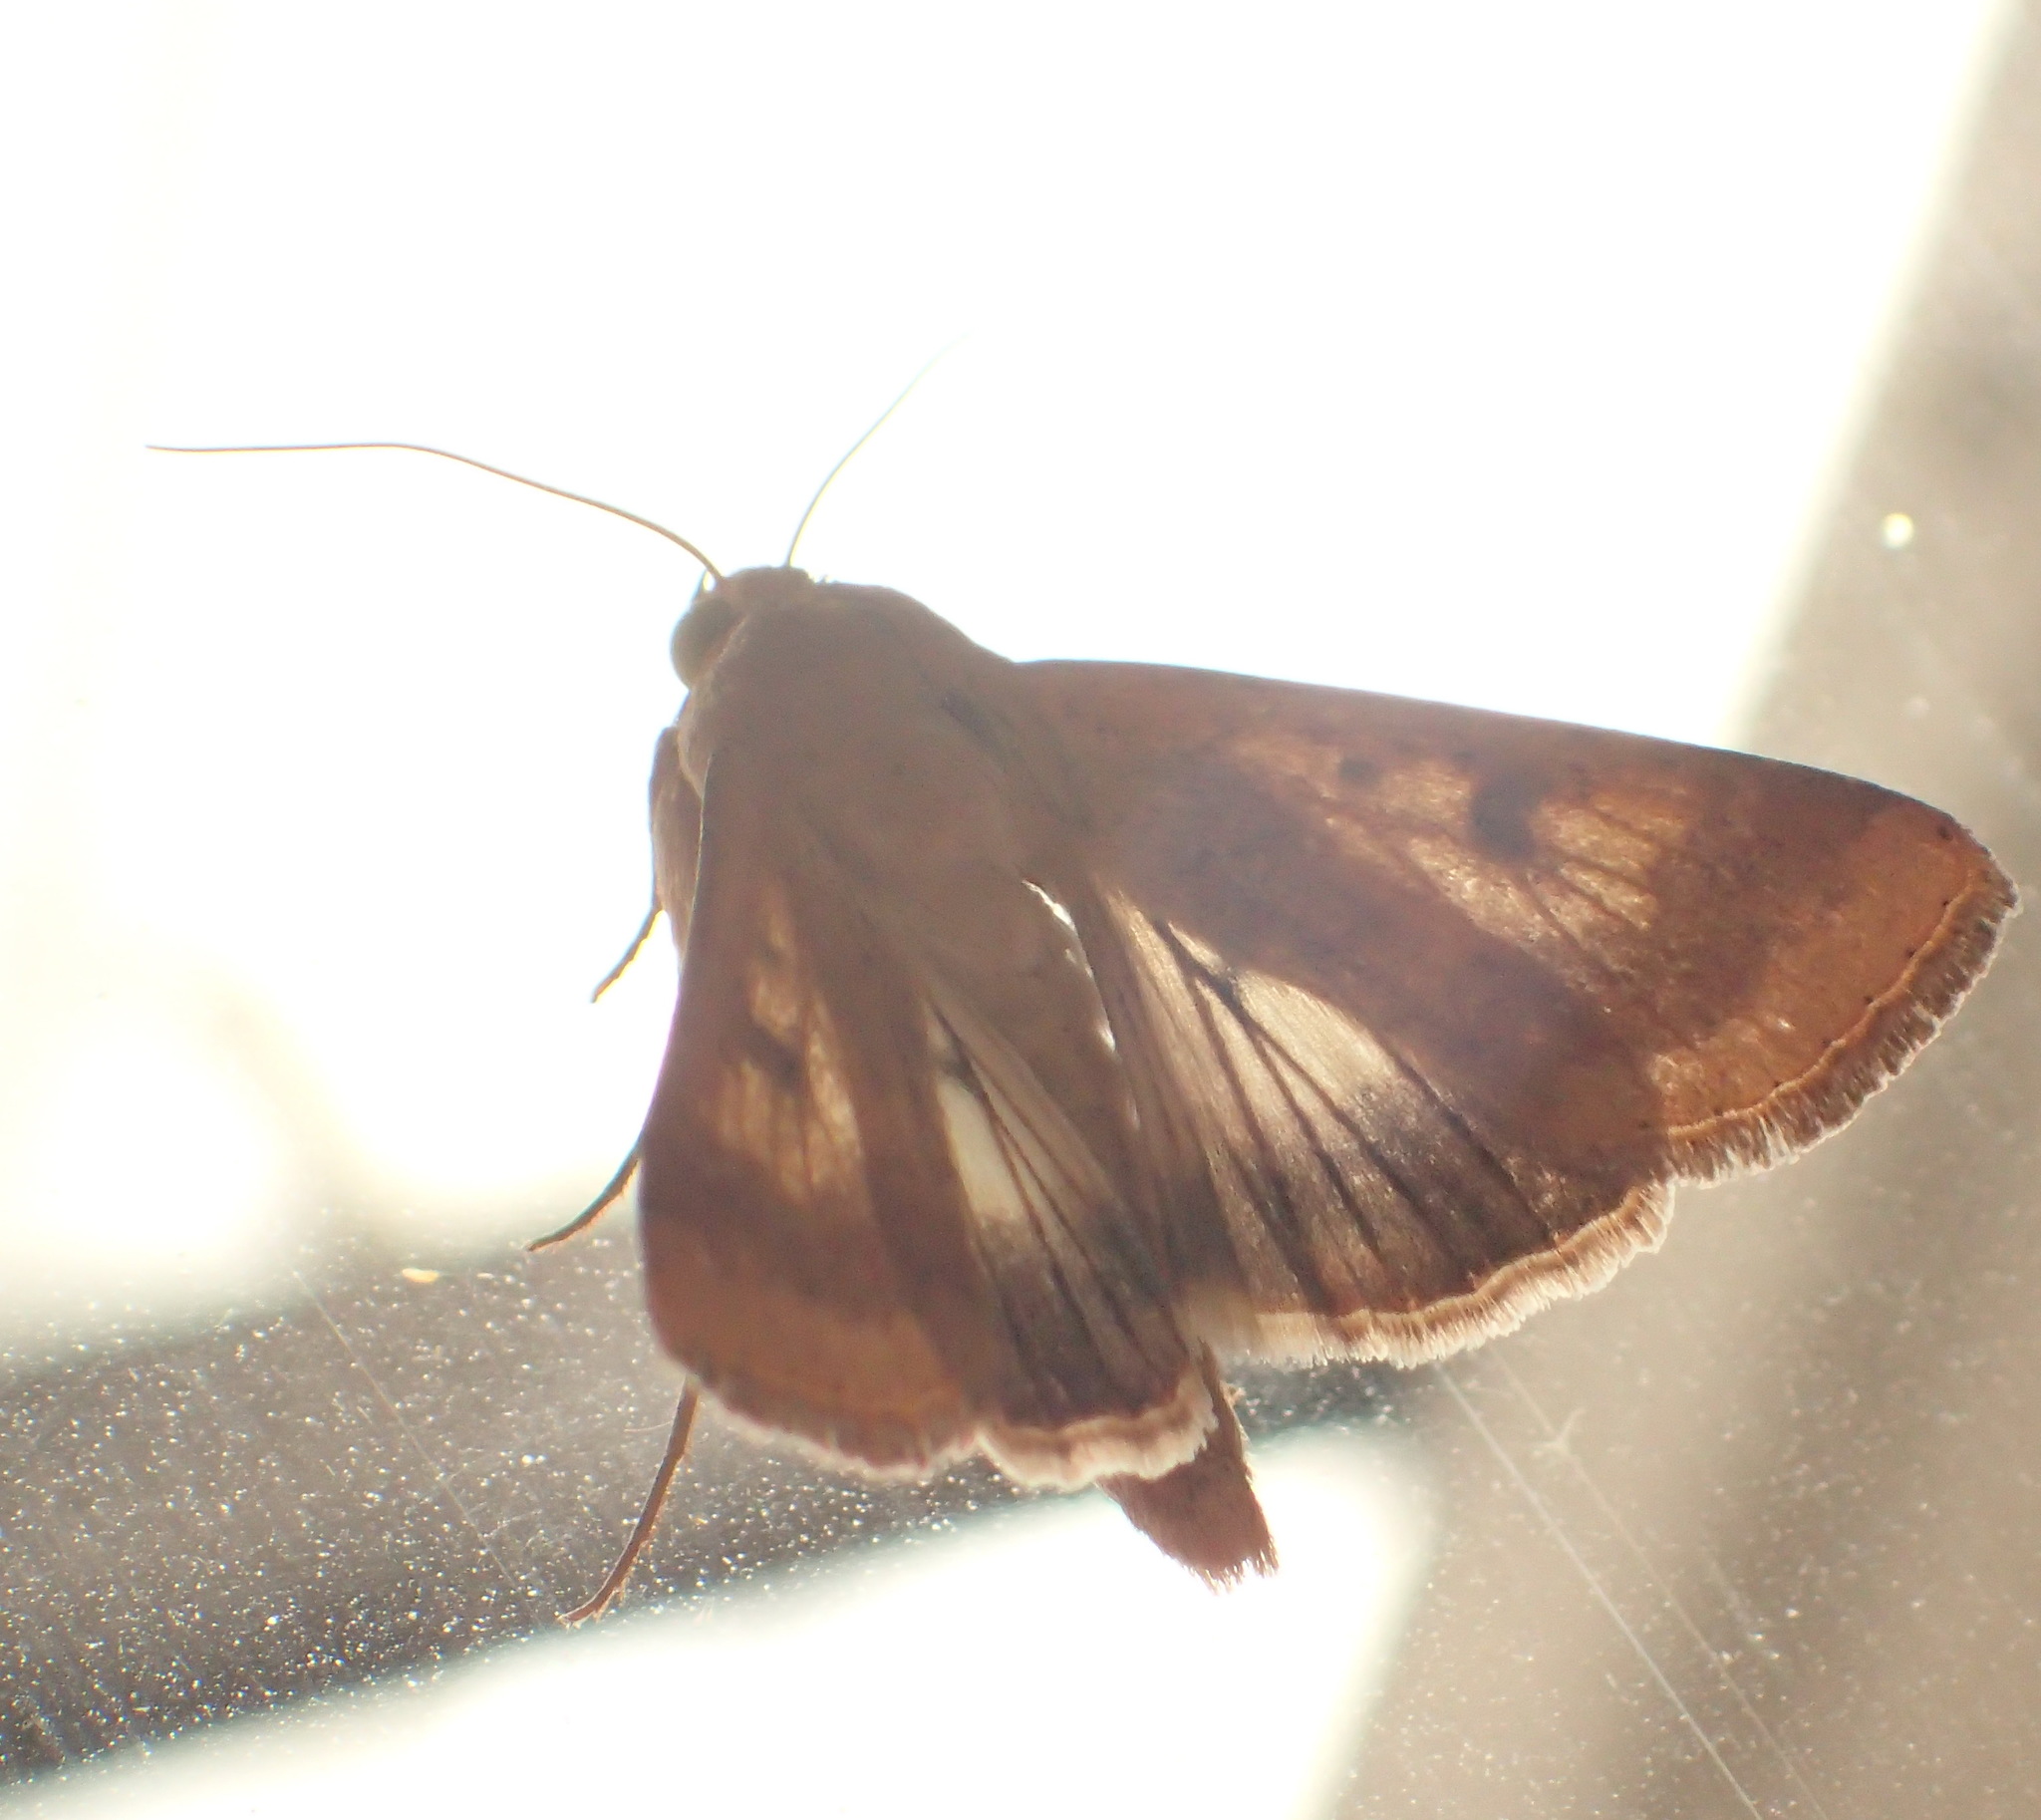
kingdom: Animalia
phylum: Arthropoda
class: Insecta
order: Lepidoptera
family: Noctuidae
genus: Helicoverpa
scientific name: Helicoverpa armigera
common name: Cotton bollworm
